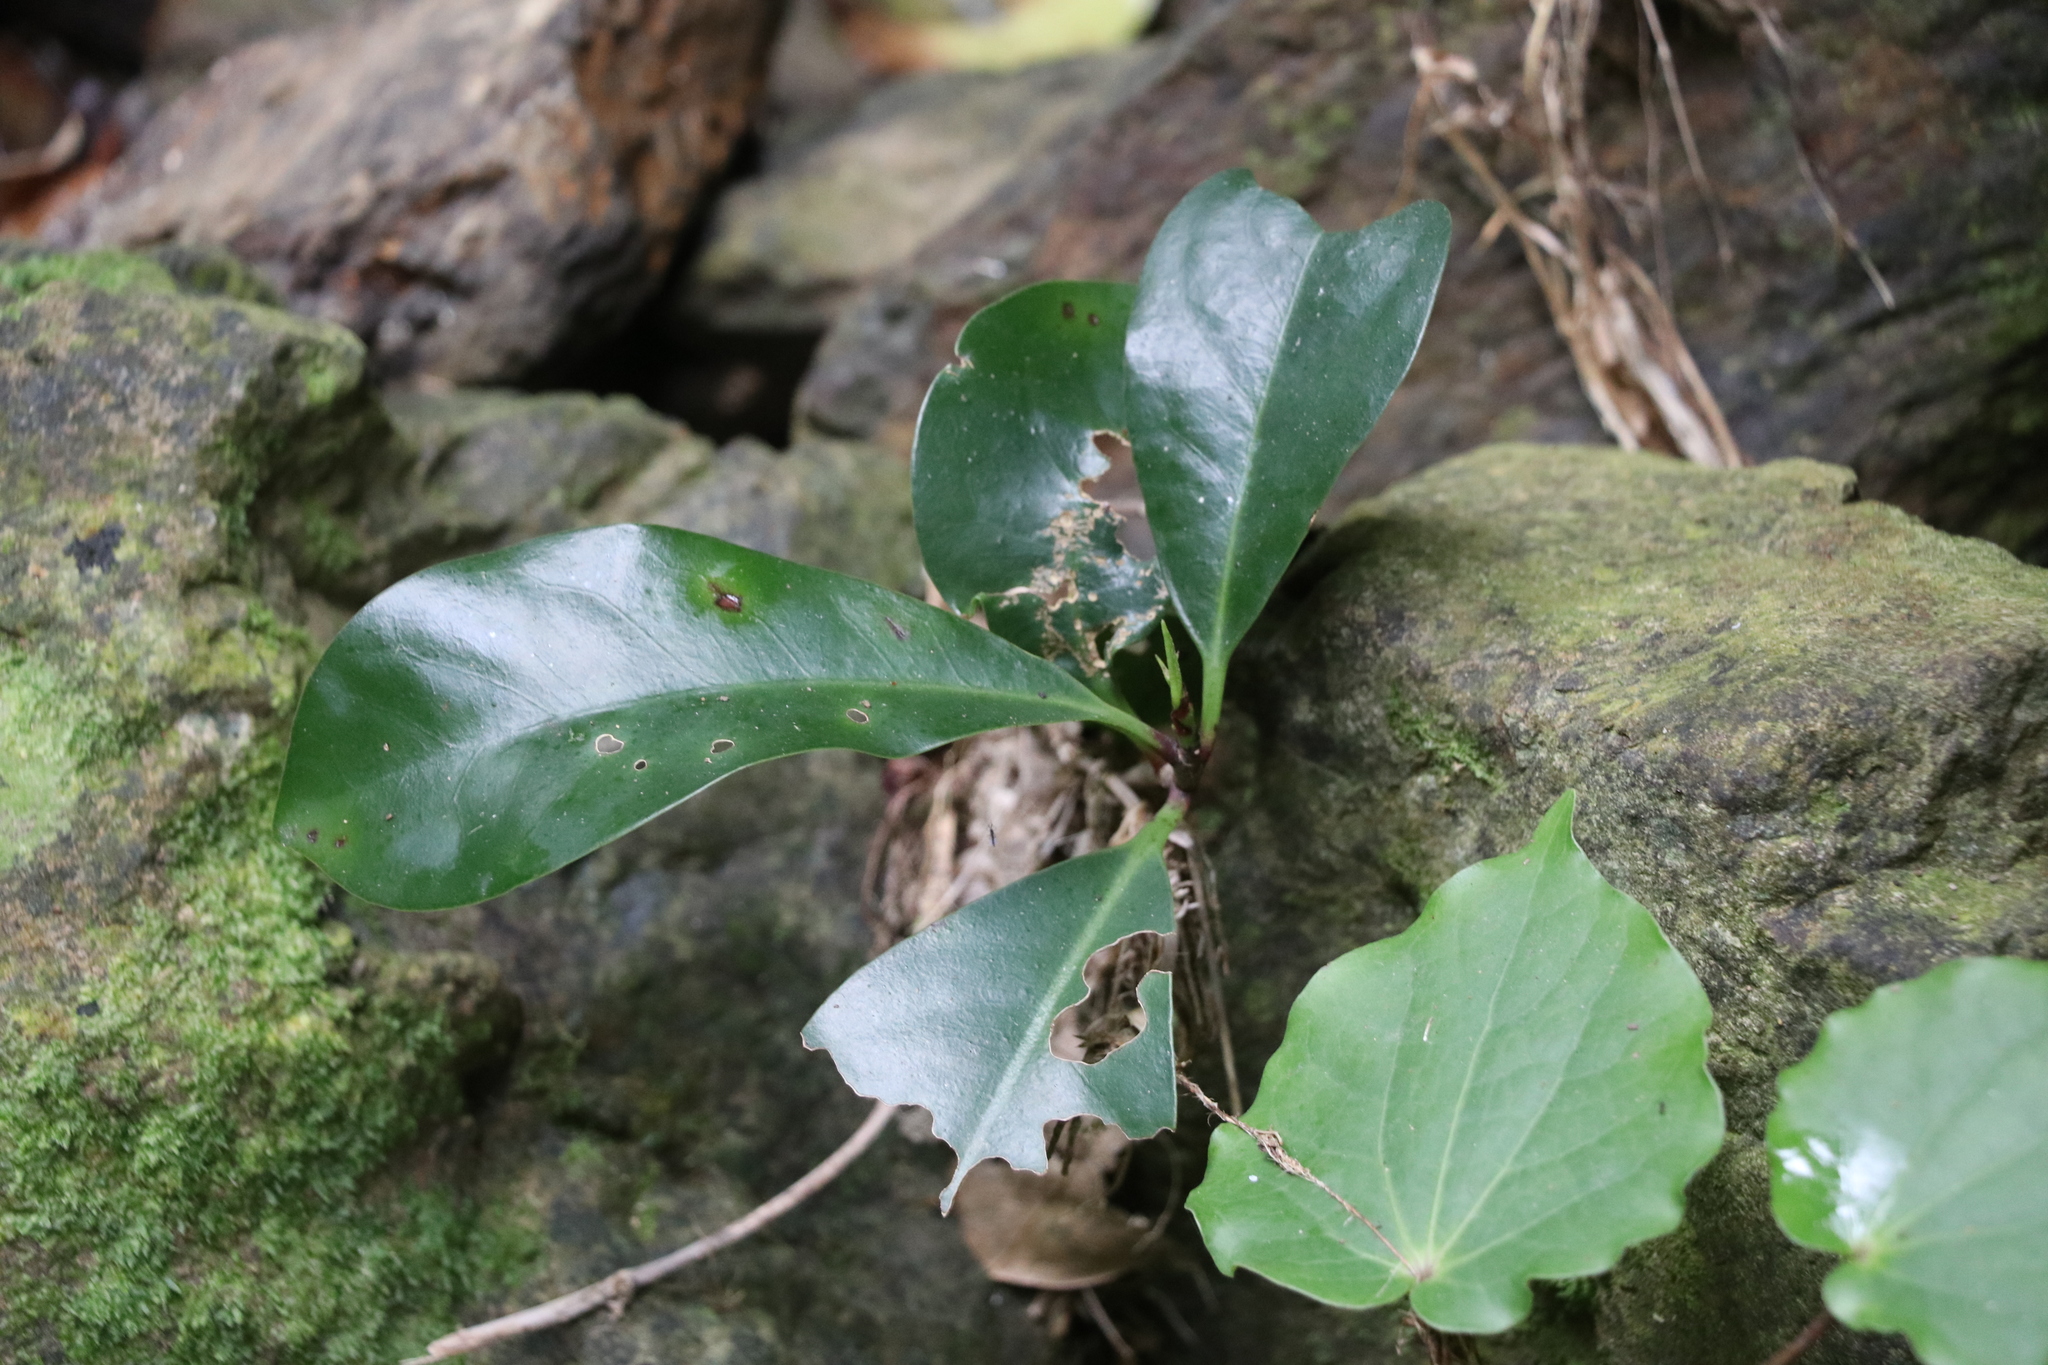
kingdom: Plantae
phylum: Tracheophyta
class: Magnoliopsida
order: Cucurbitales
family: Corynocarpaceae
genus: Corynocarpus
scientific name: Corynocarpus laevigatus
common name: New zealand laurel
